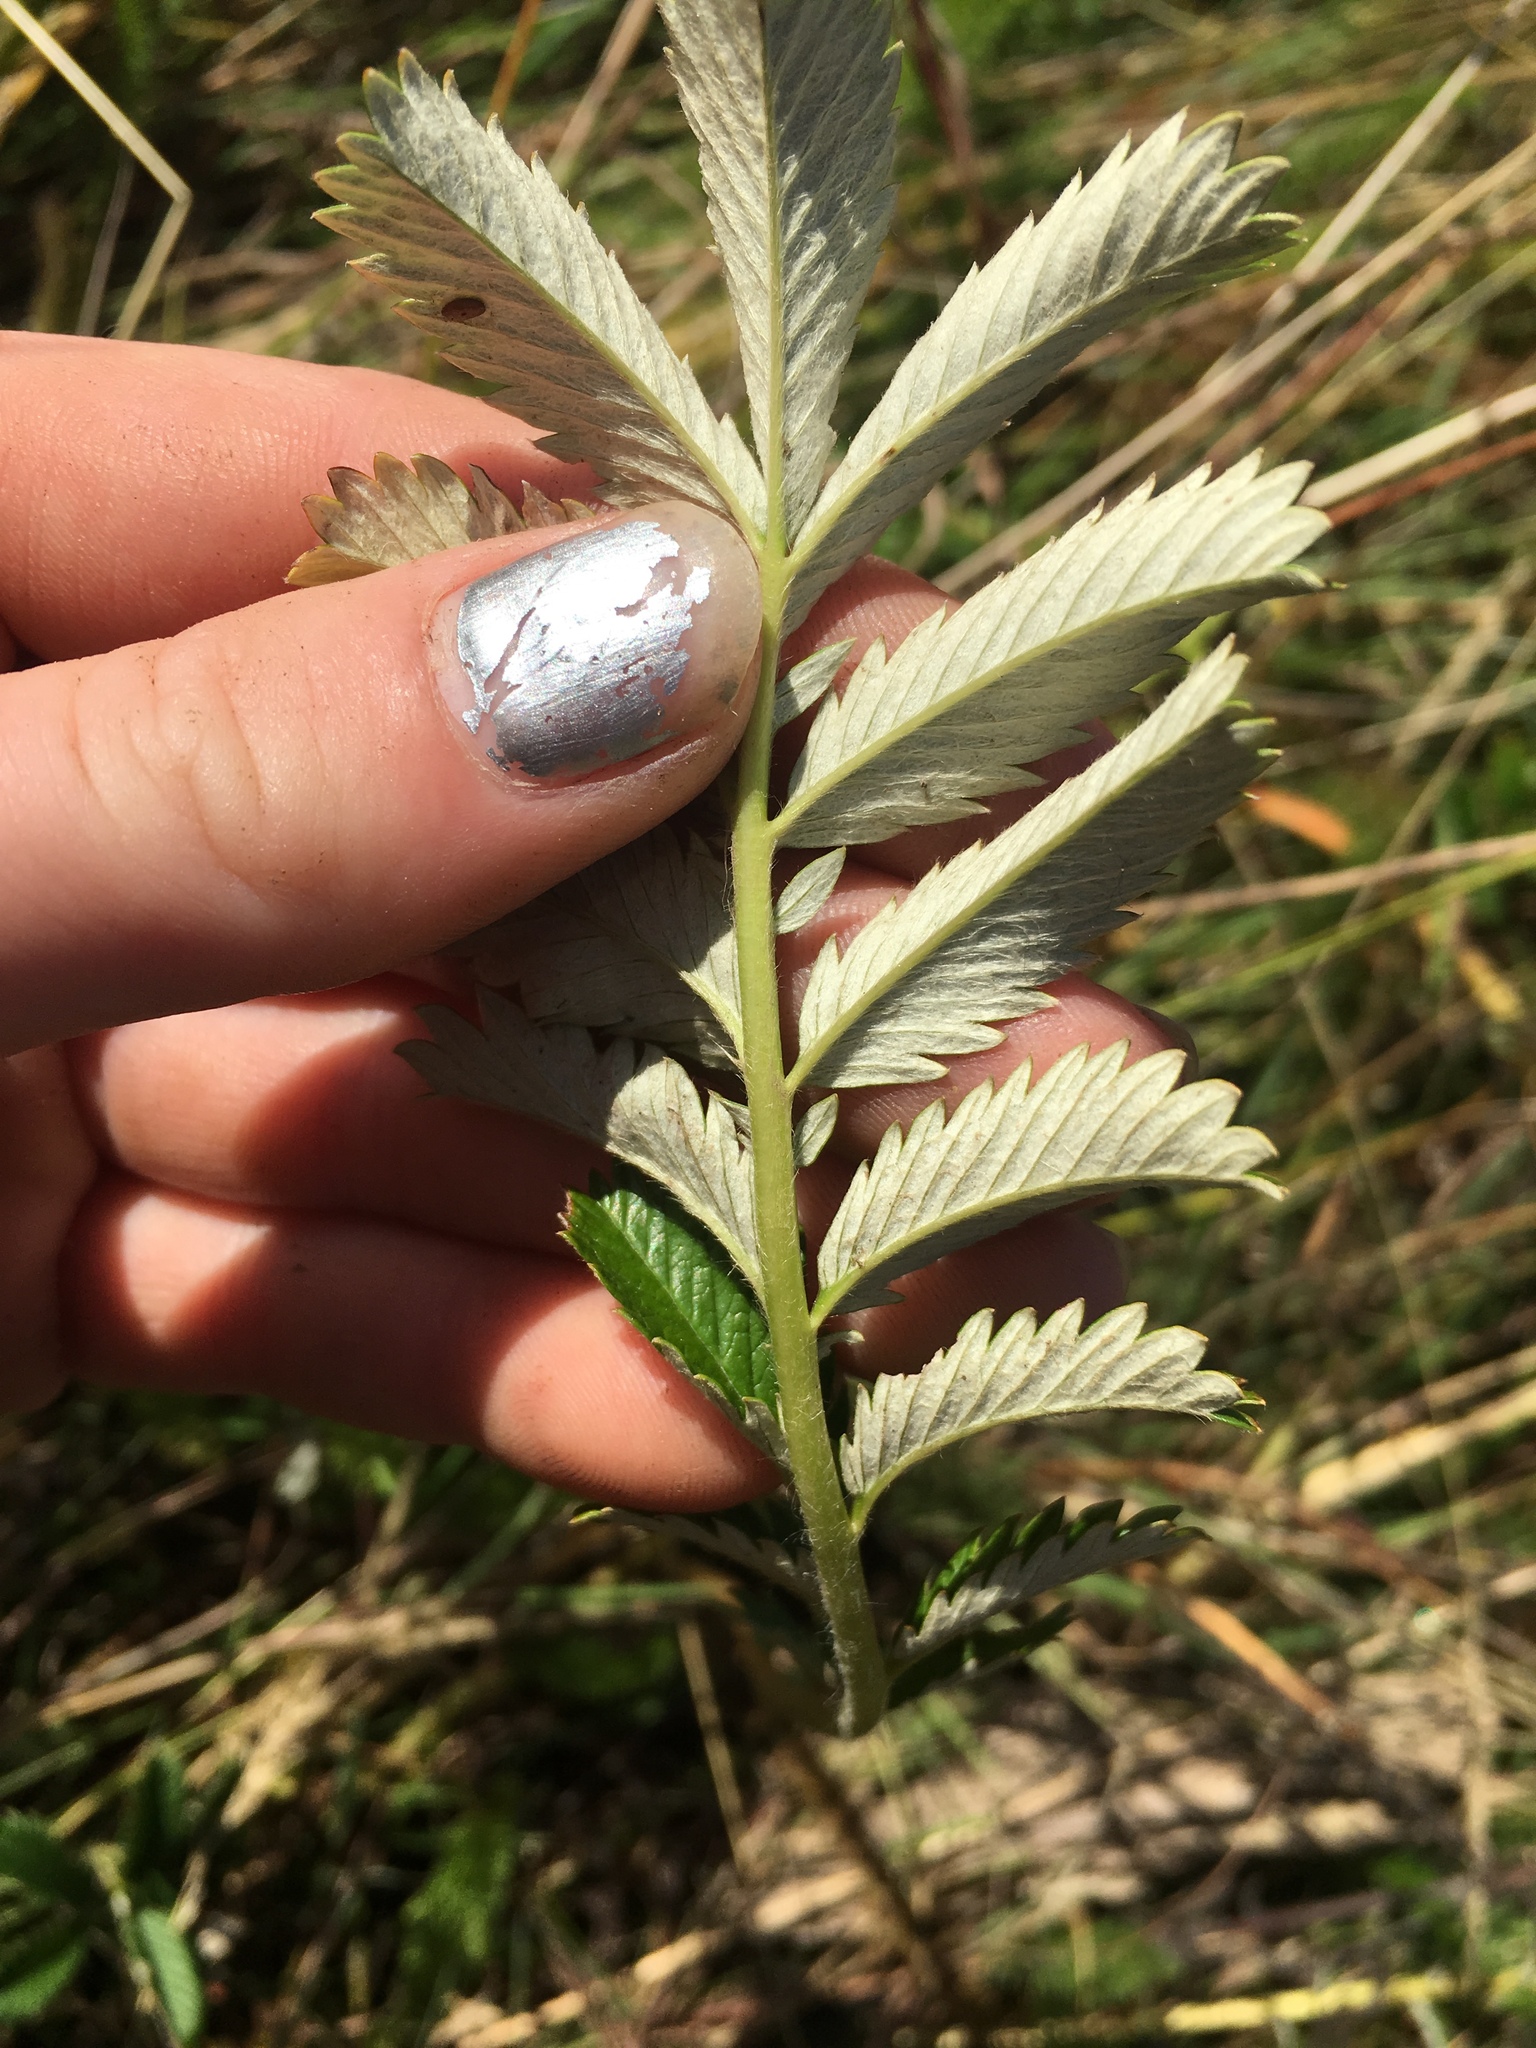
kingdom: Plantae
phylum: Tracheophyta
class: Magnoliopsida
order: Rosales
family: Rosaceae
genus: Argentina
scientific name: Argentina anserina
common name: Common silverweed
